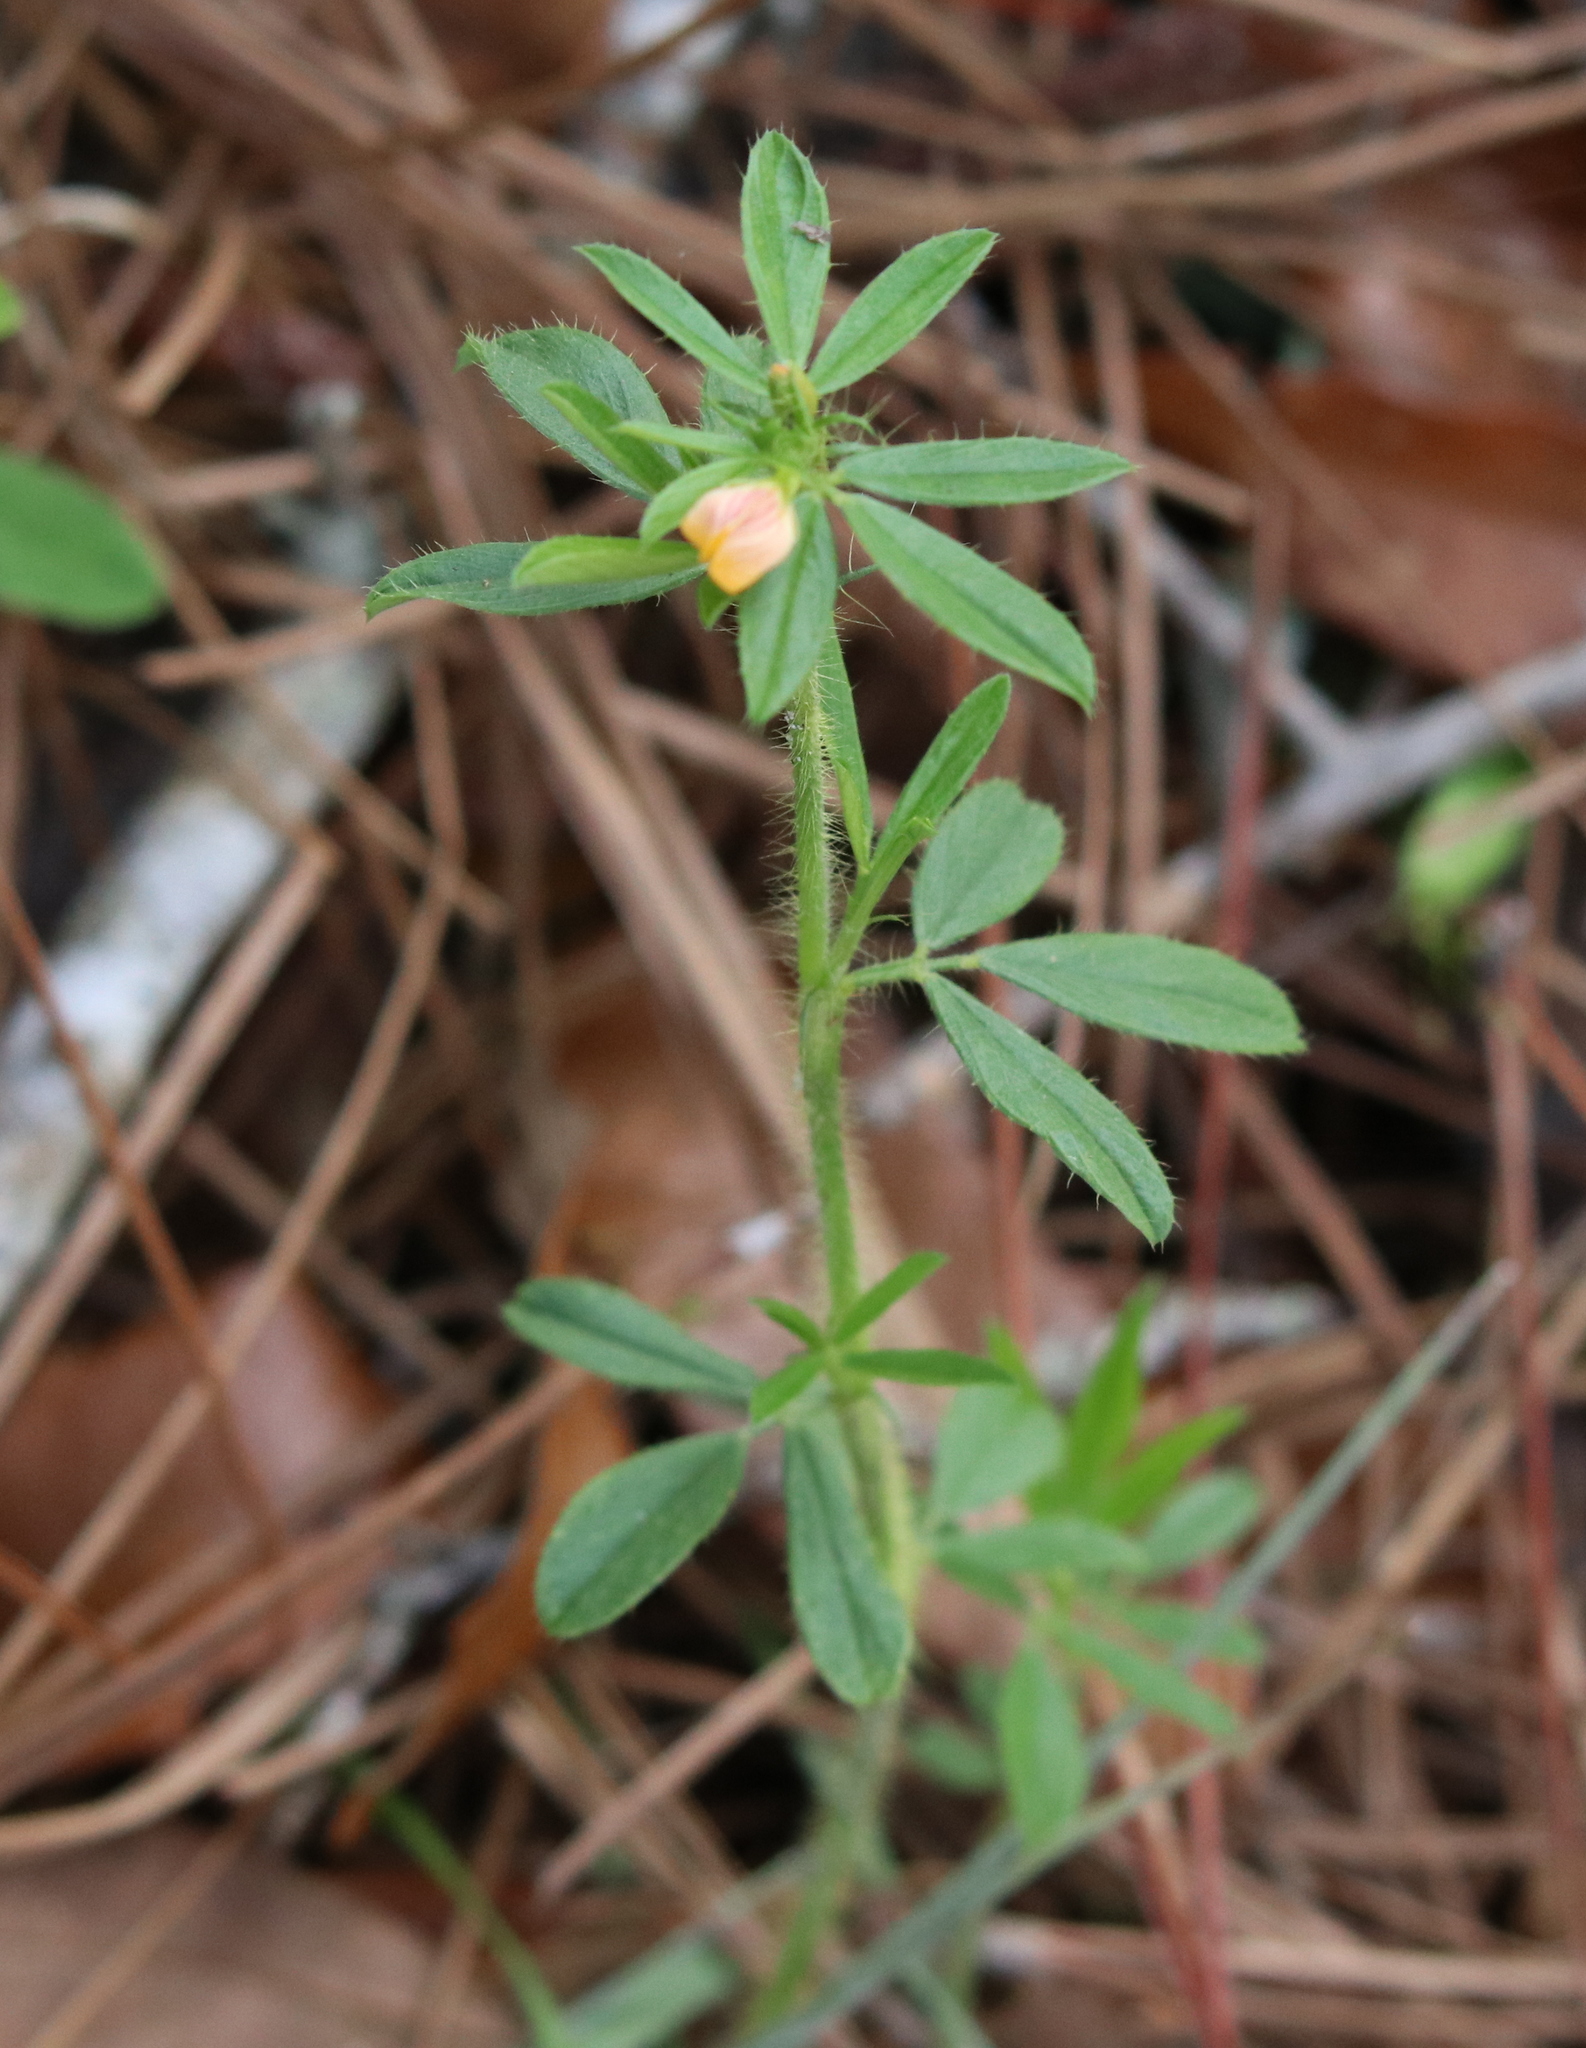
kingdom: Plantae
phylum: Tracheophyta
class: Magnoliopsida
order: Fabales
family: Fabaceae
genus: Stylosanthes
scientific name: Stylosanthes biflora
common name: Two-flower pencil-flower
